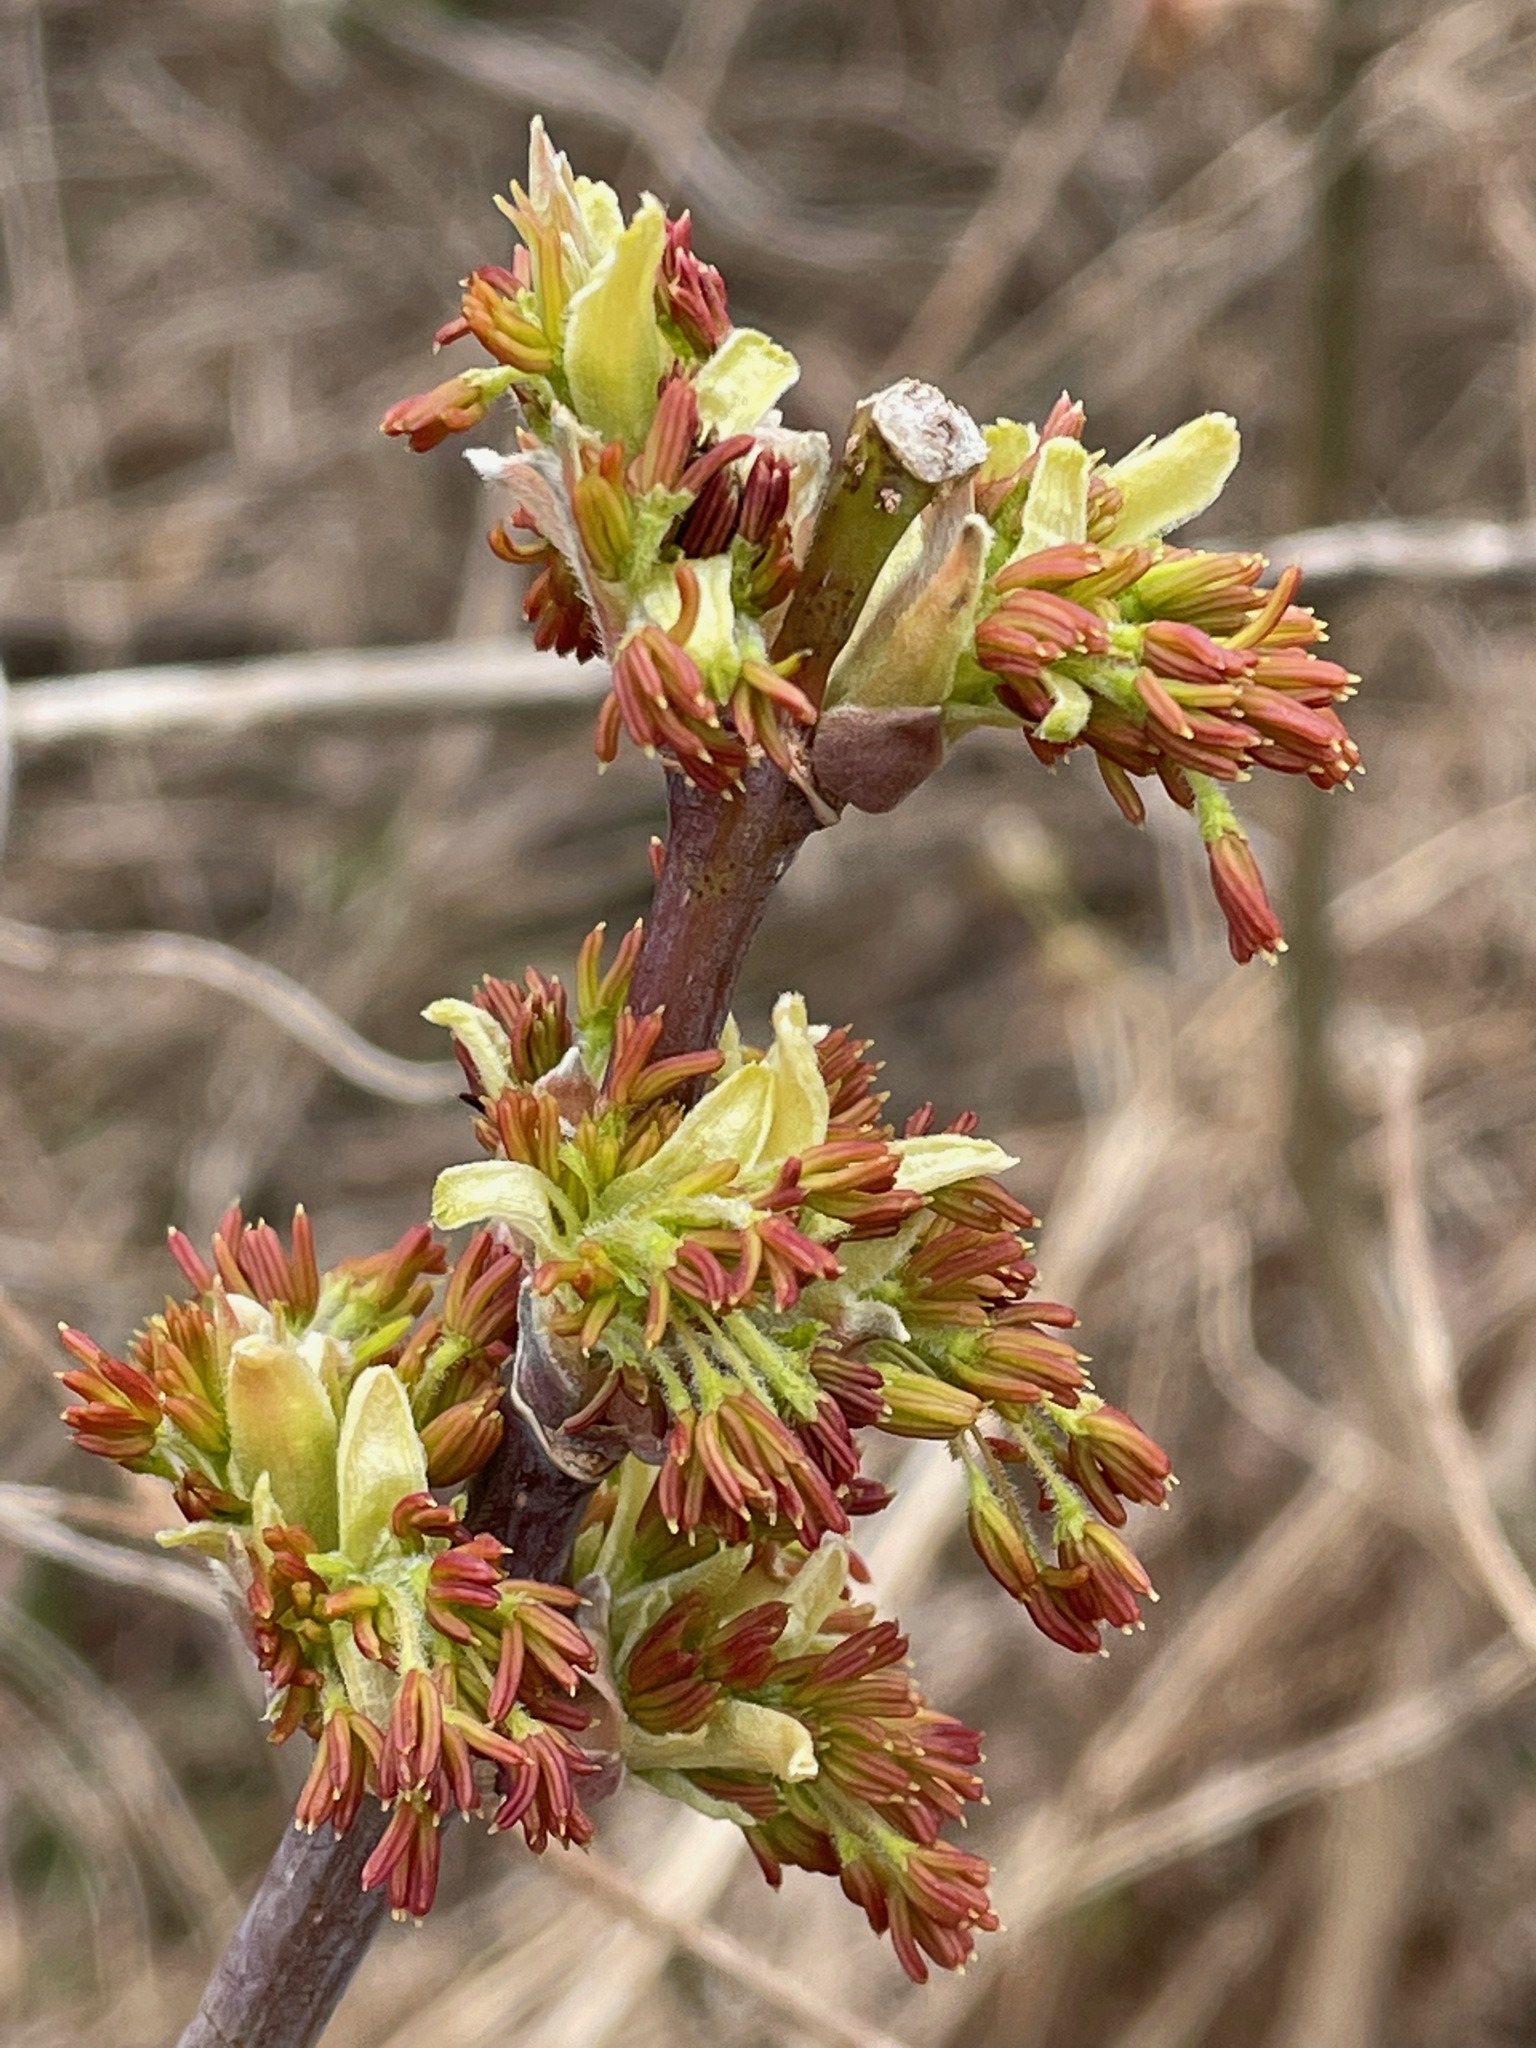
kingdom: Plantae
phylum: Tracheophyta
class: Magnoliopsida
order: Sapindales
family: Sapindaceae
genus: Acer
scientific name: Acer negundo
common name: Ashleaf maple
